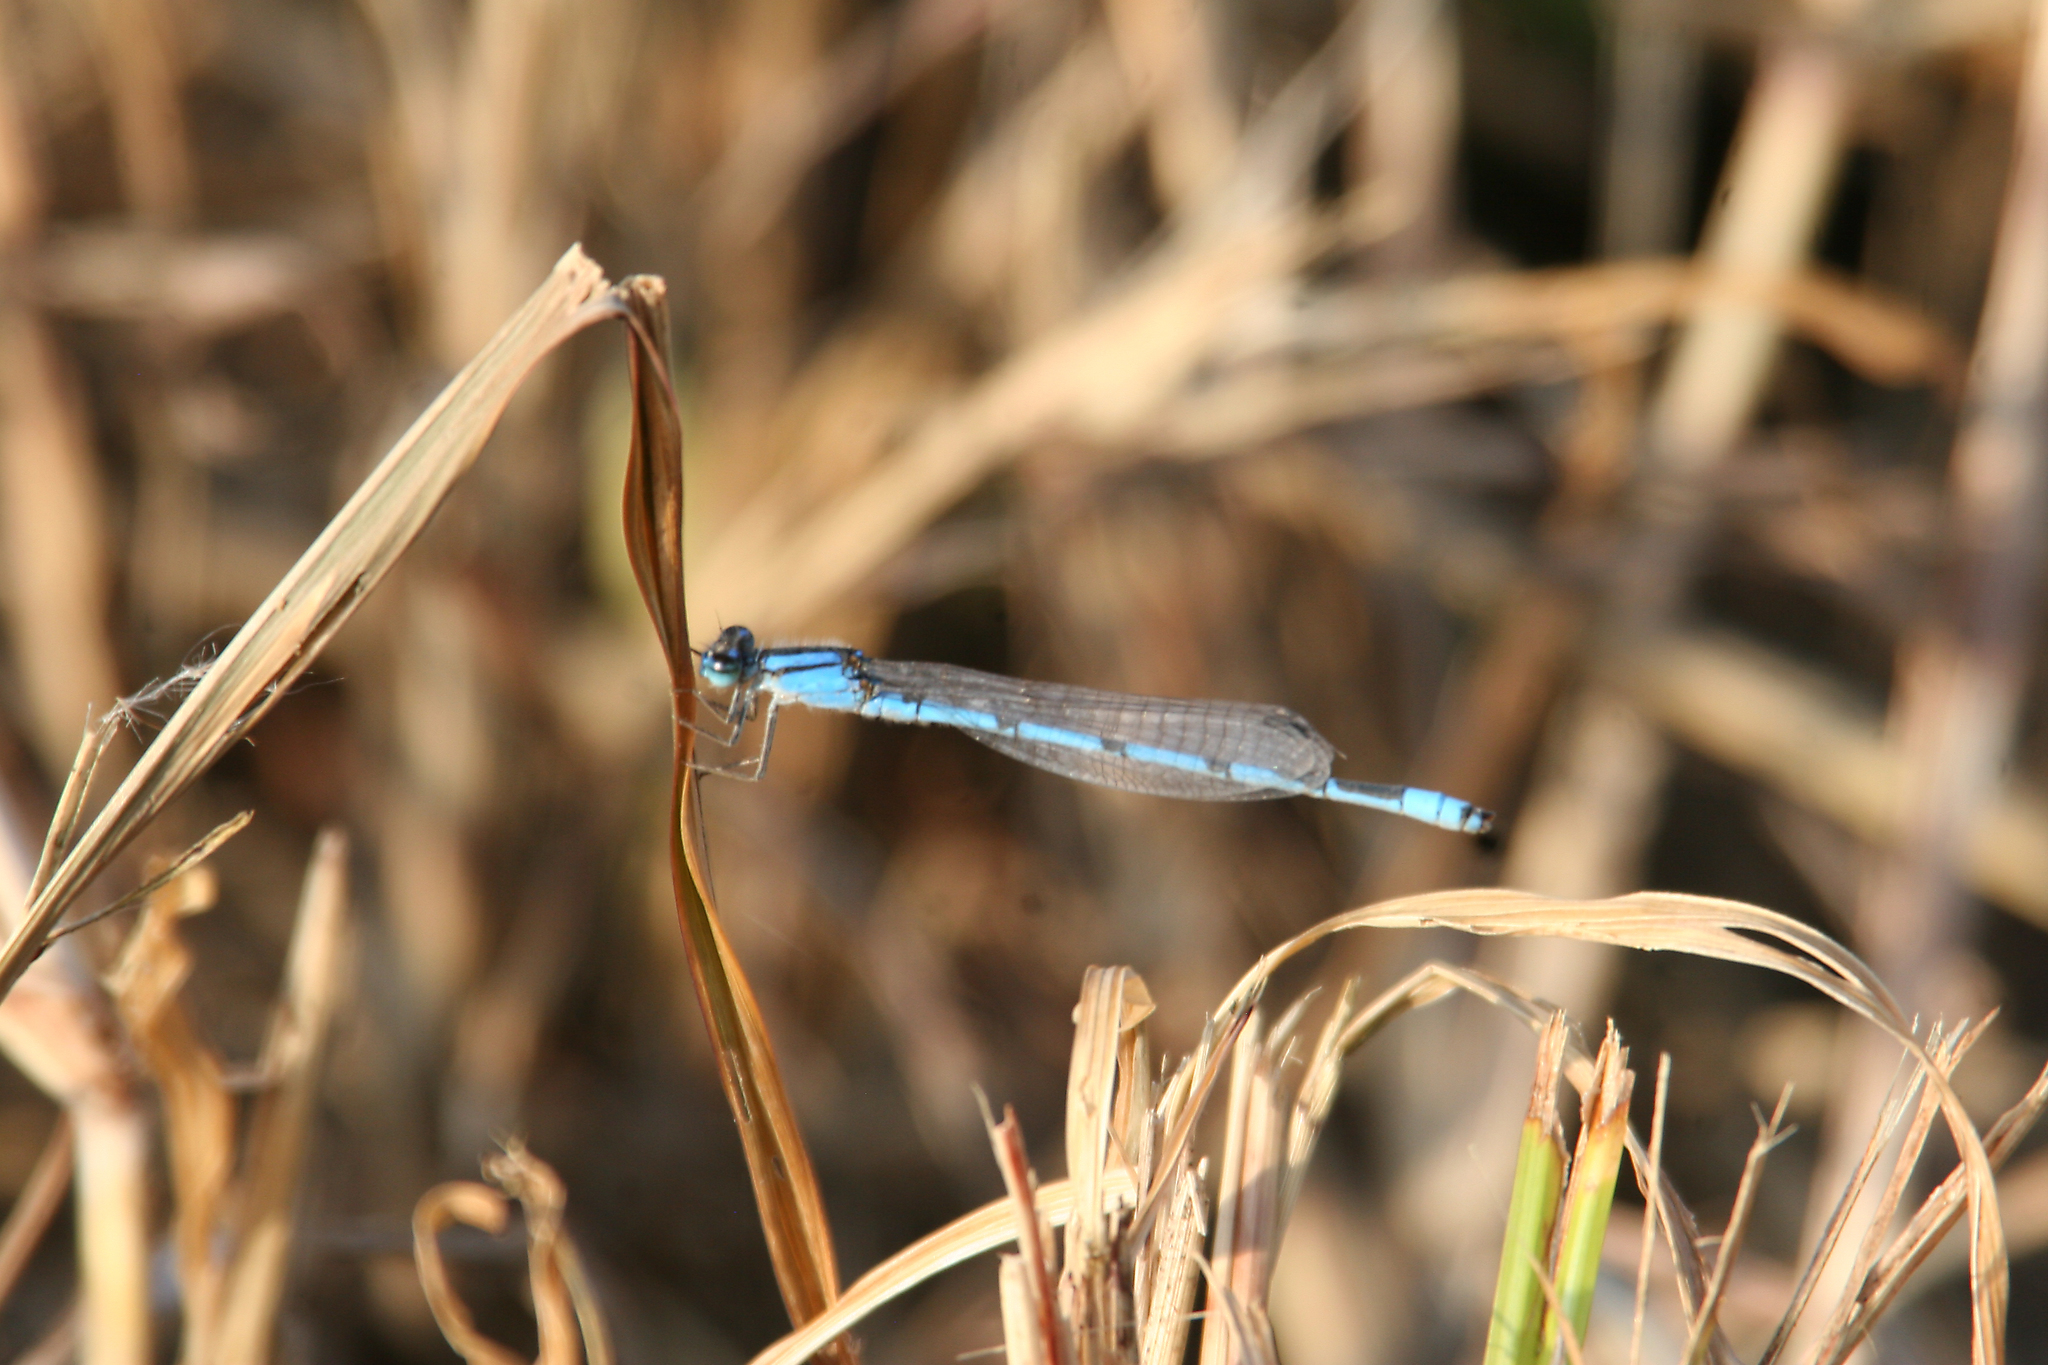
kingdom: Animalia
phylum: Arthropoda
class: Insecta
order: Odonata
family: Coenagrionidae
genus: Enallagma
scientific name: Enallagma civile
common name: Damselfly
